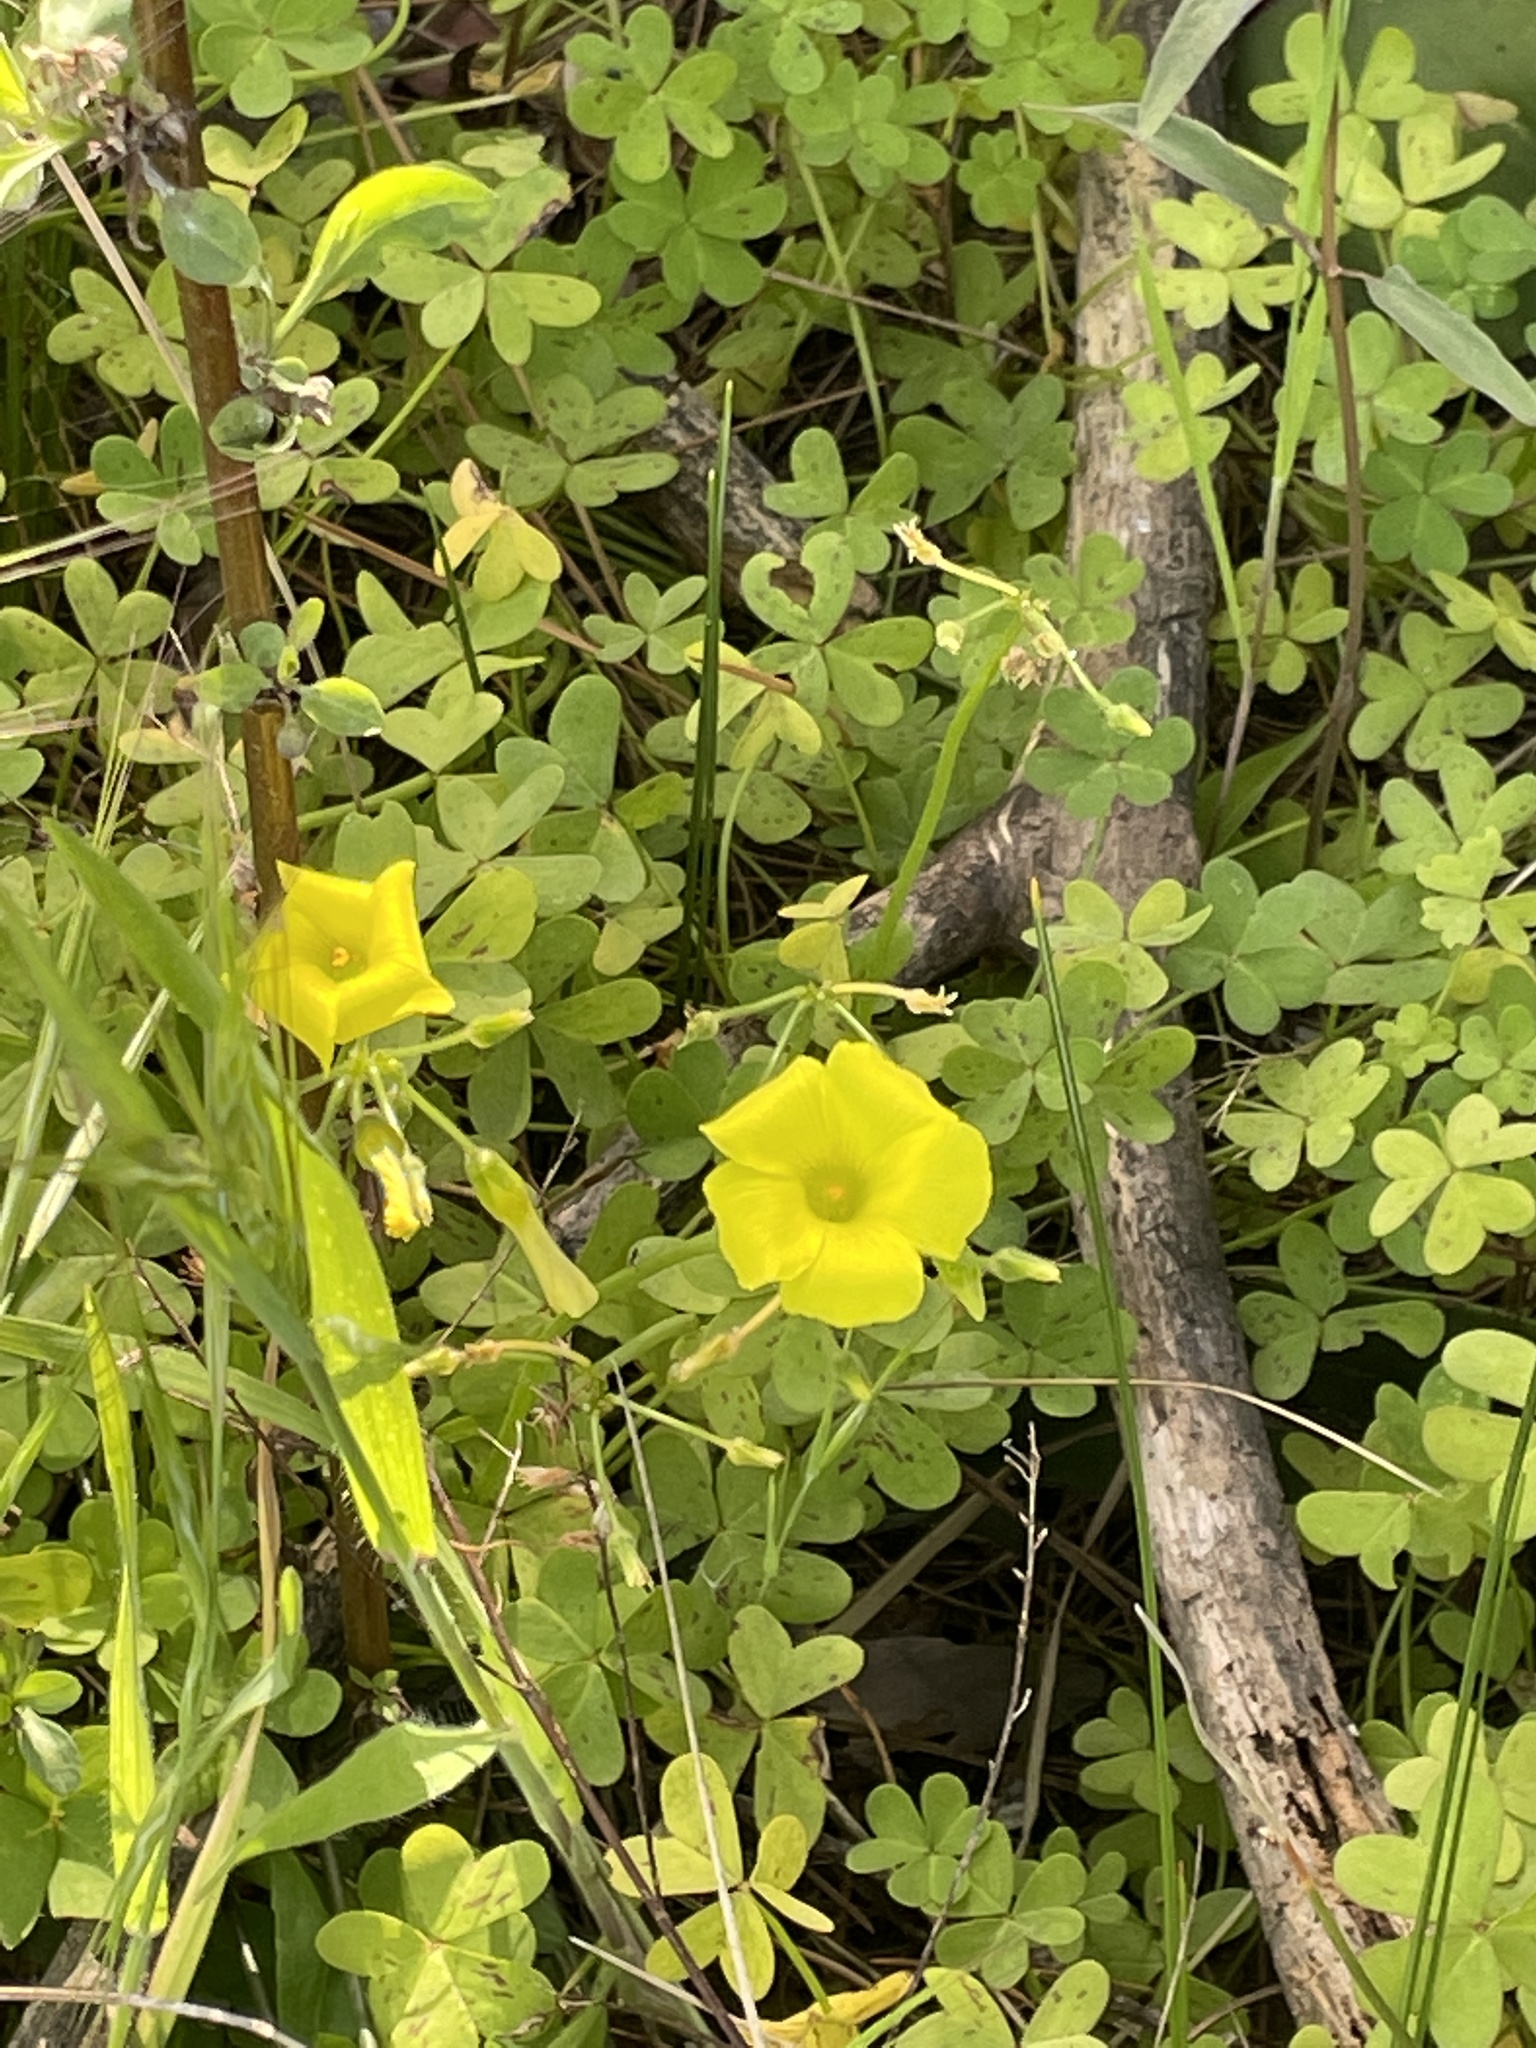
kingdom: Plantae
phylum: Tracheophyta
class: Magnoliopsida
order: Oxalidales
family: Oxalidaceae
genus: Oxalis
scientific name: Oxalis pes-caprae
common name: Bermuda-buttercup
